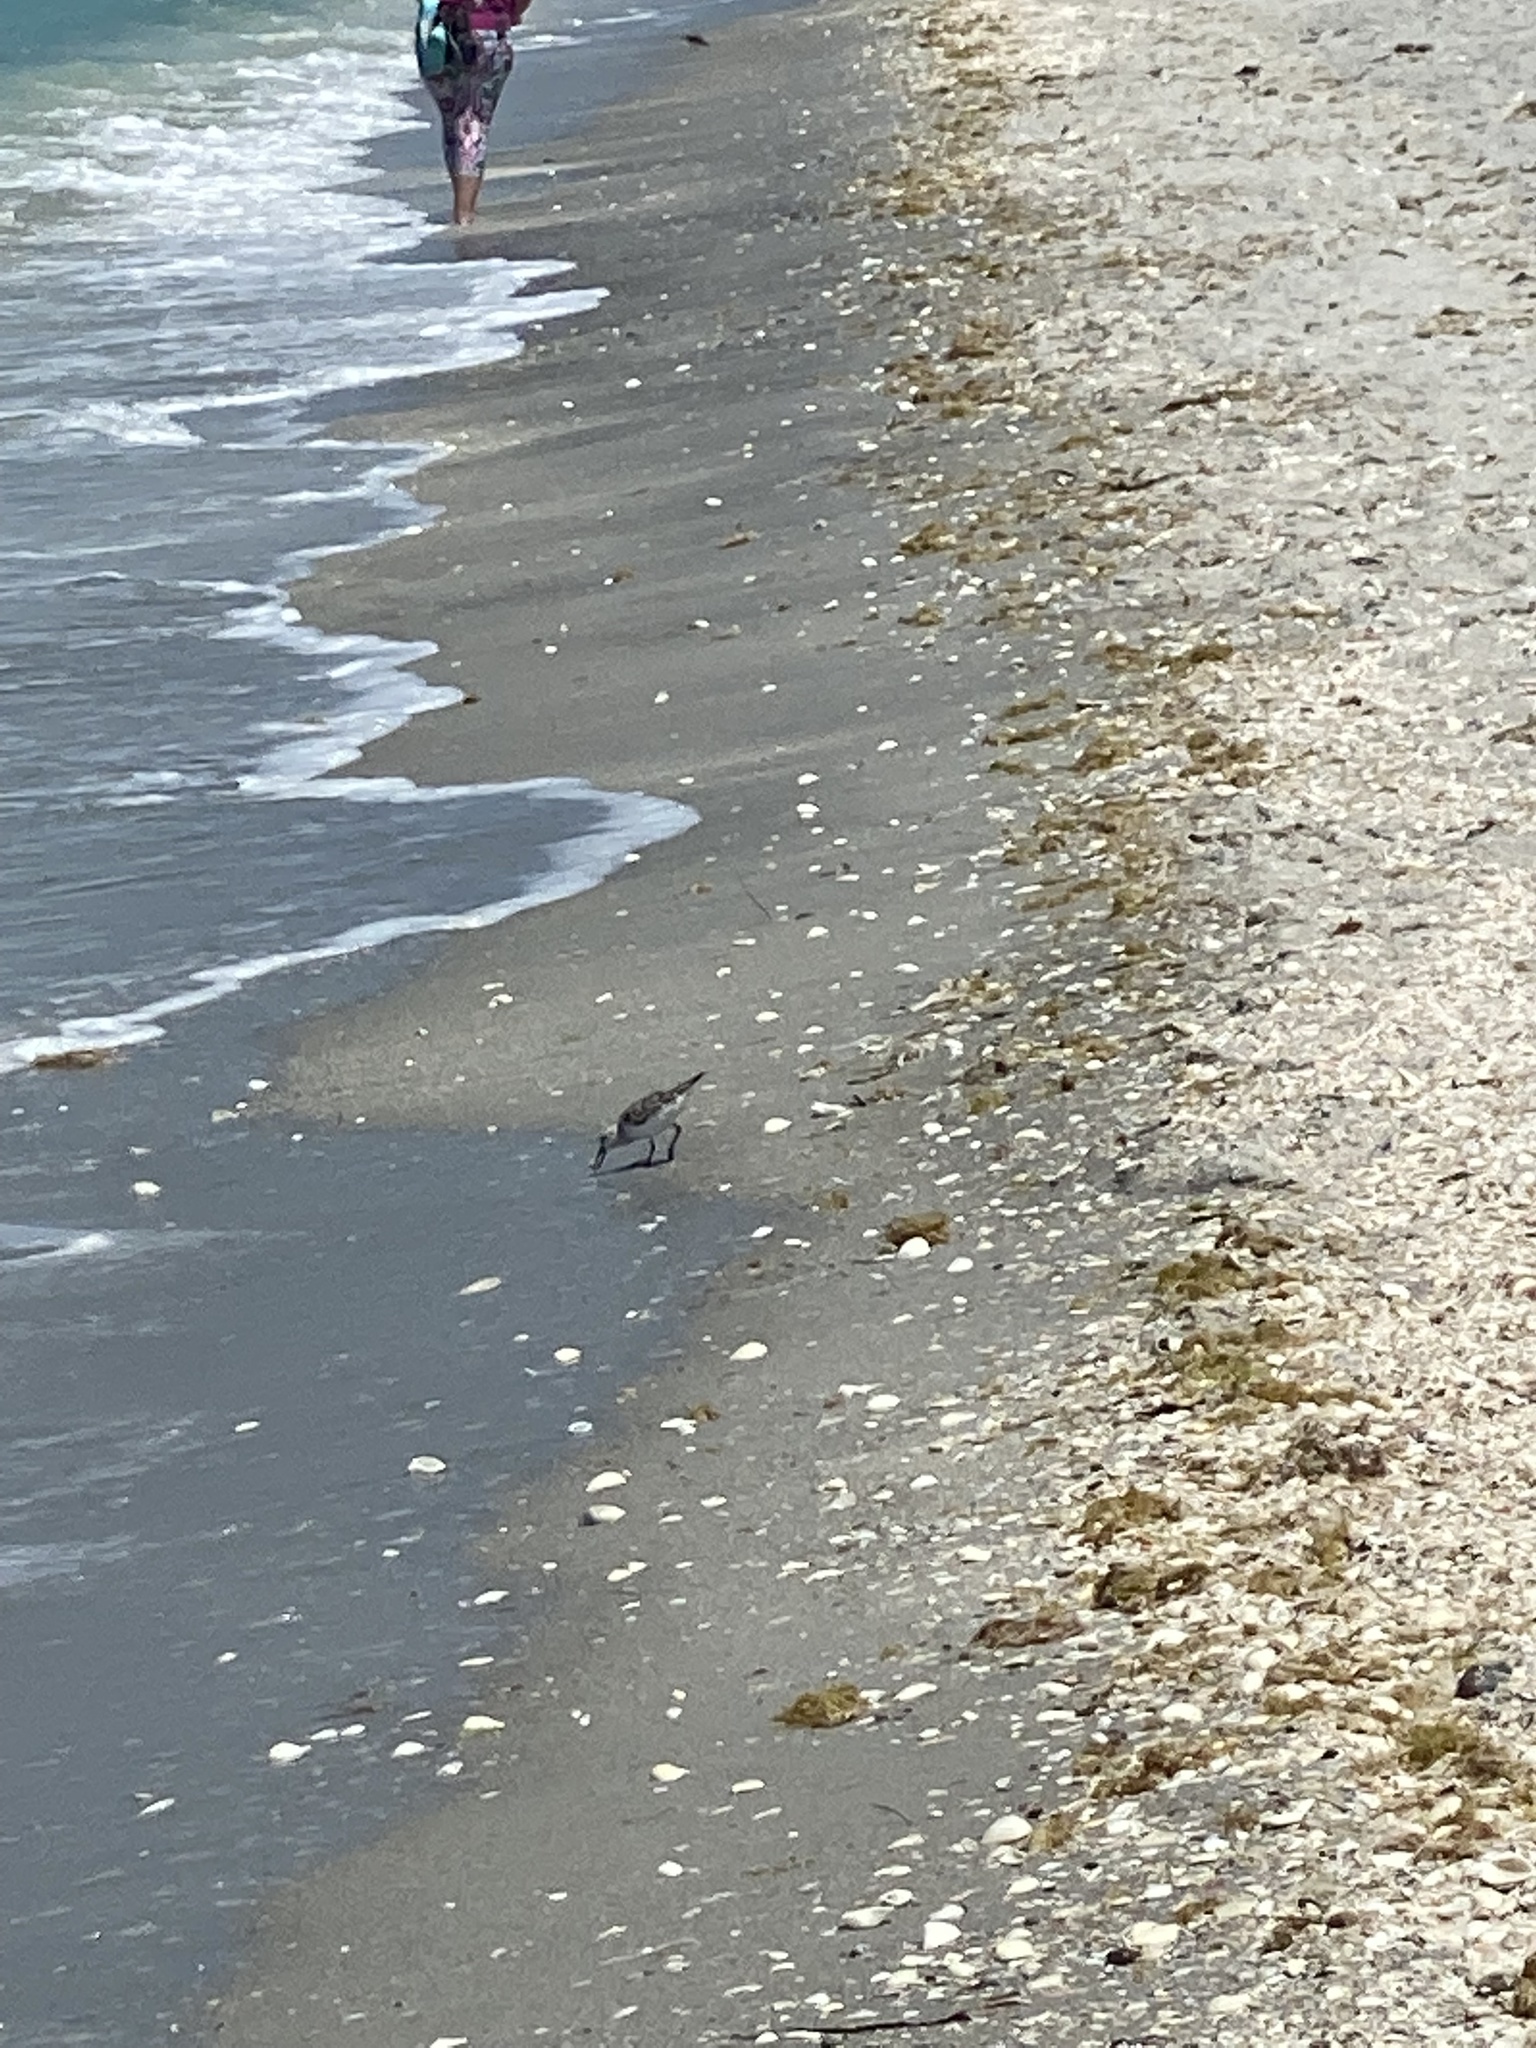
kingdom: Animalia
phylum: Chordata
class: Aves
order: Charadriiformes
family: Scolopacidae
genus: Calidris
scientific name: Calidris alba
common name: Sanderling
